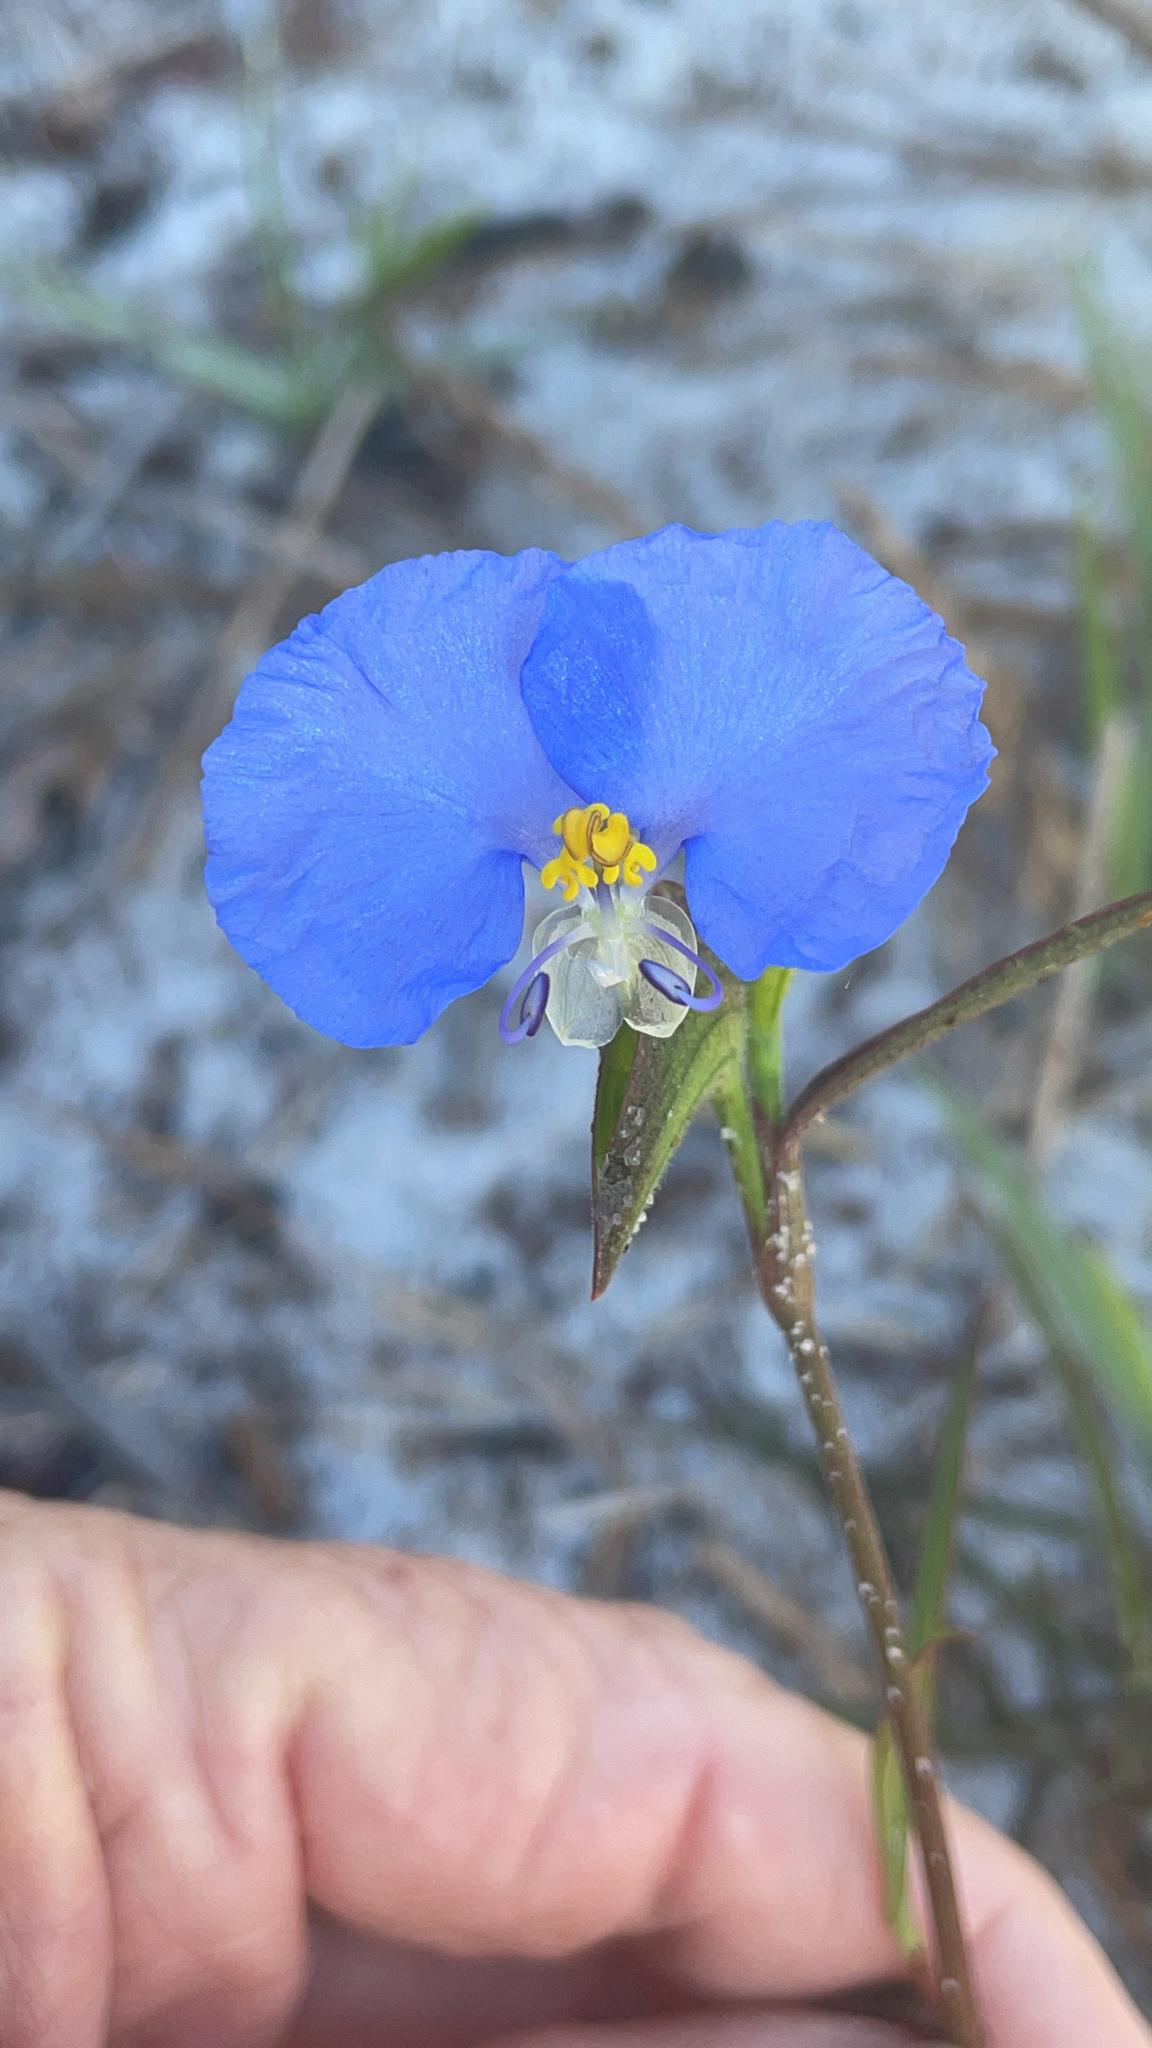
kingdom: Plantae
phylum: Tracheophyta
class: Liliopsida
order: Commelinales
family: Commelinaceae
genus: Commelina
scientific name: Commelina erecta
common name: Blousel blommetjie
